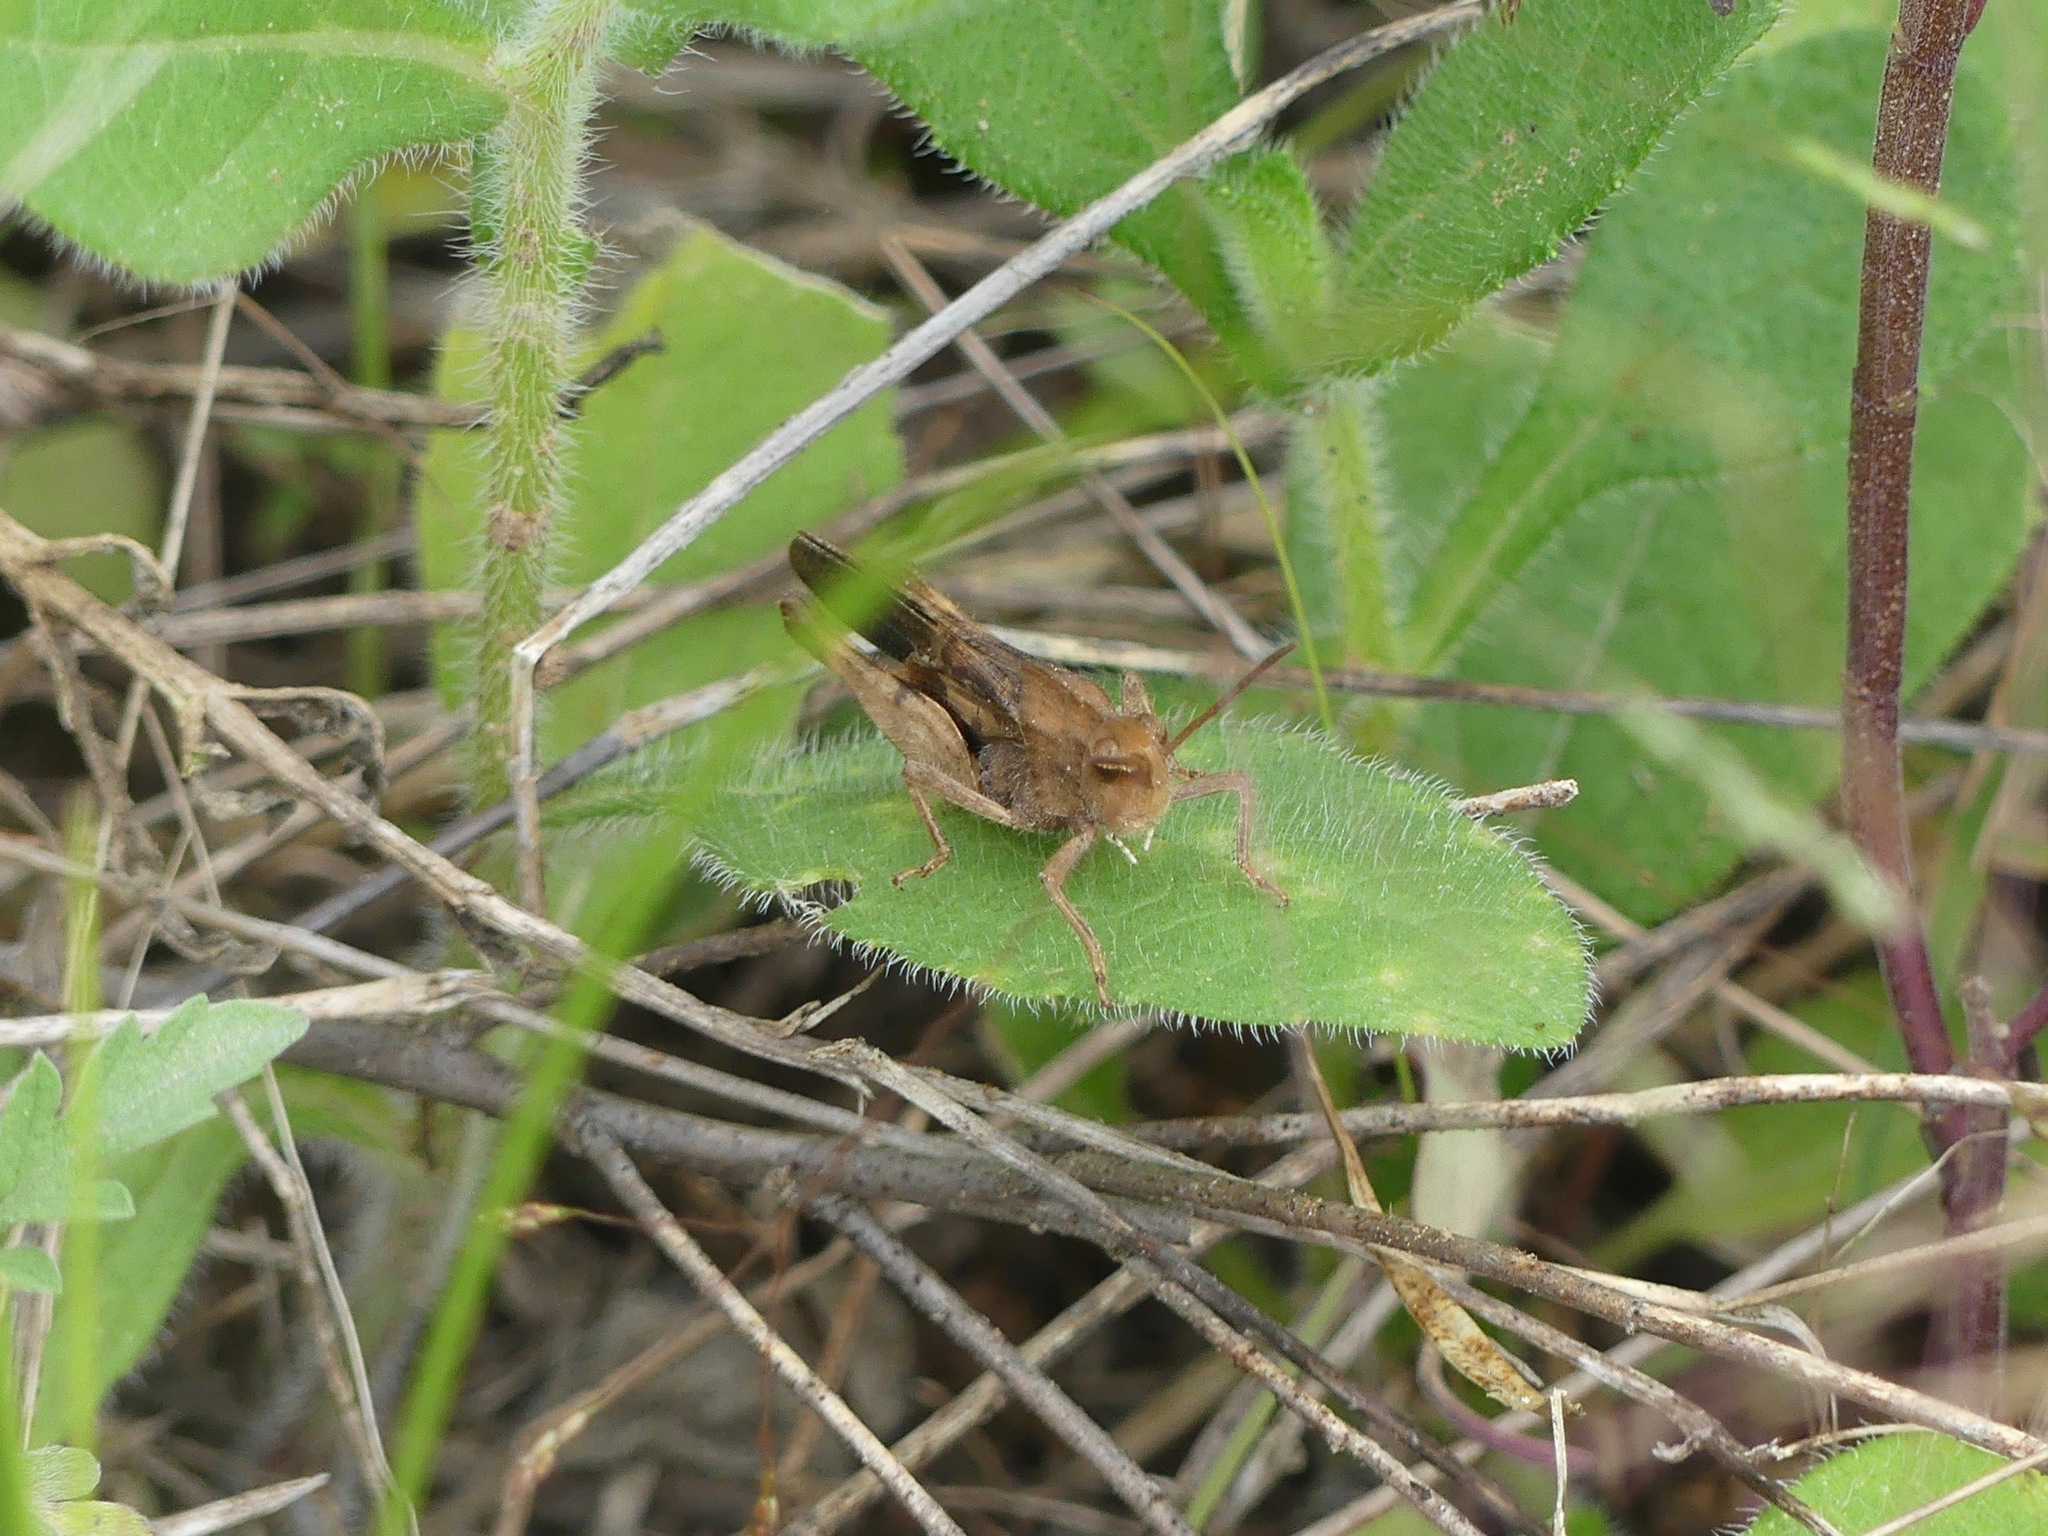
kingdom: Animalia
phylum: Arthropoda
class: Insecta
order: Orthoptera
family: Acrididae
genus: Chortophaga
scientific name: Chortophaga viridifasciata
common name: Green-striped grasshopper
